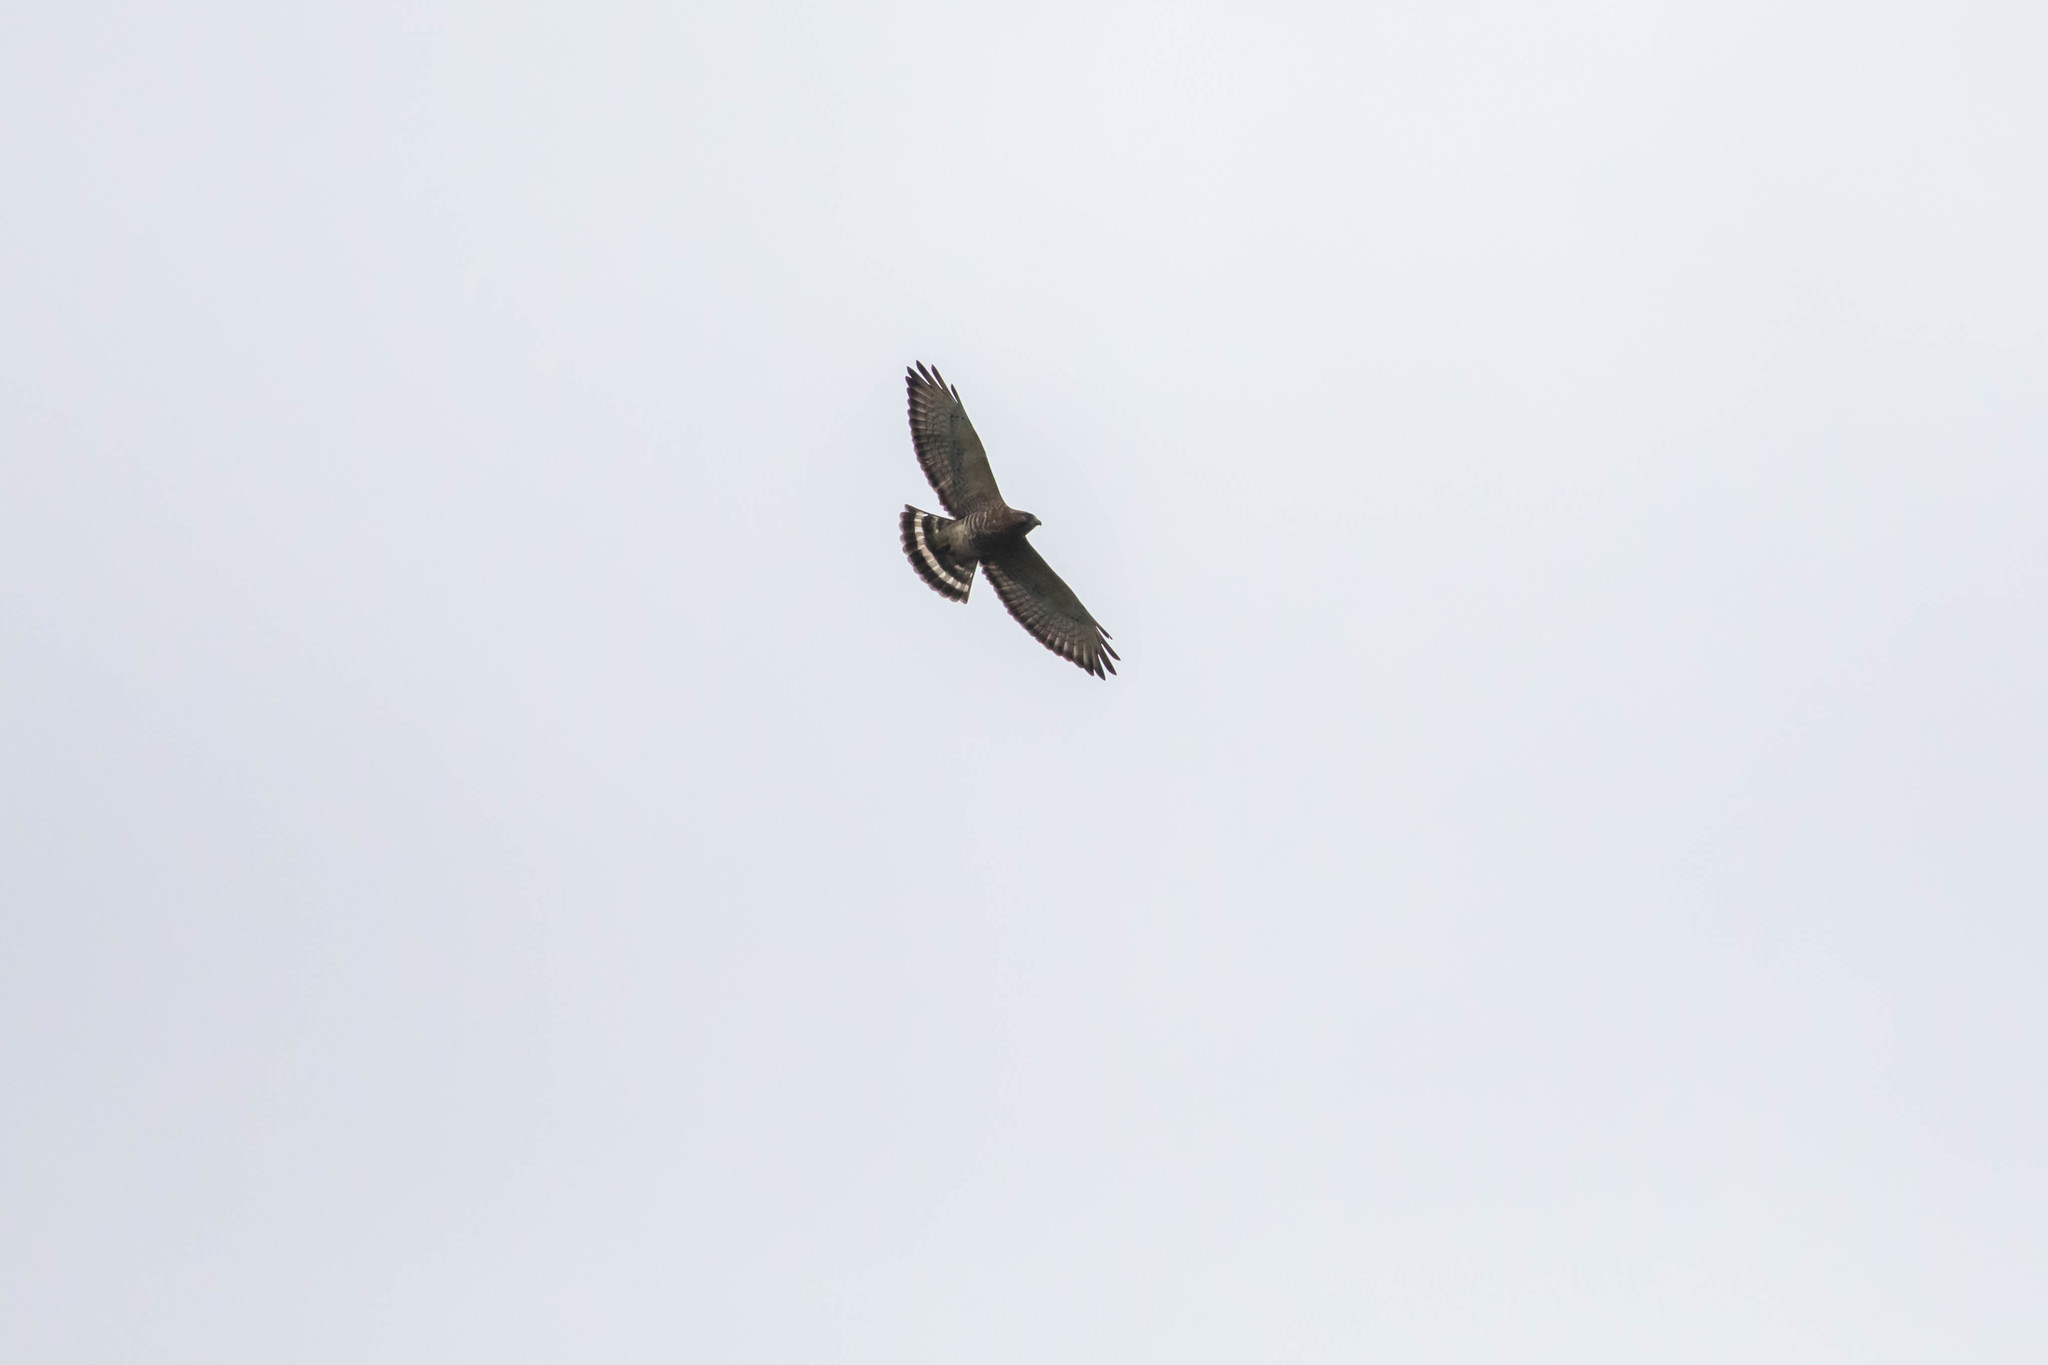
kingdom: Animalia
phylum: Chordata
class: Aves
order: Accipitriformes
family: Accipitridae
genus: Buteo
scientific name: Buteo platypterus
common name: Broad-winged hawk
